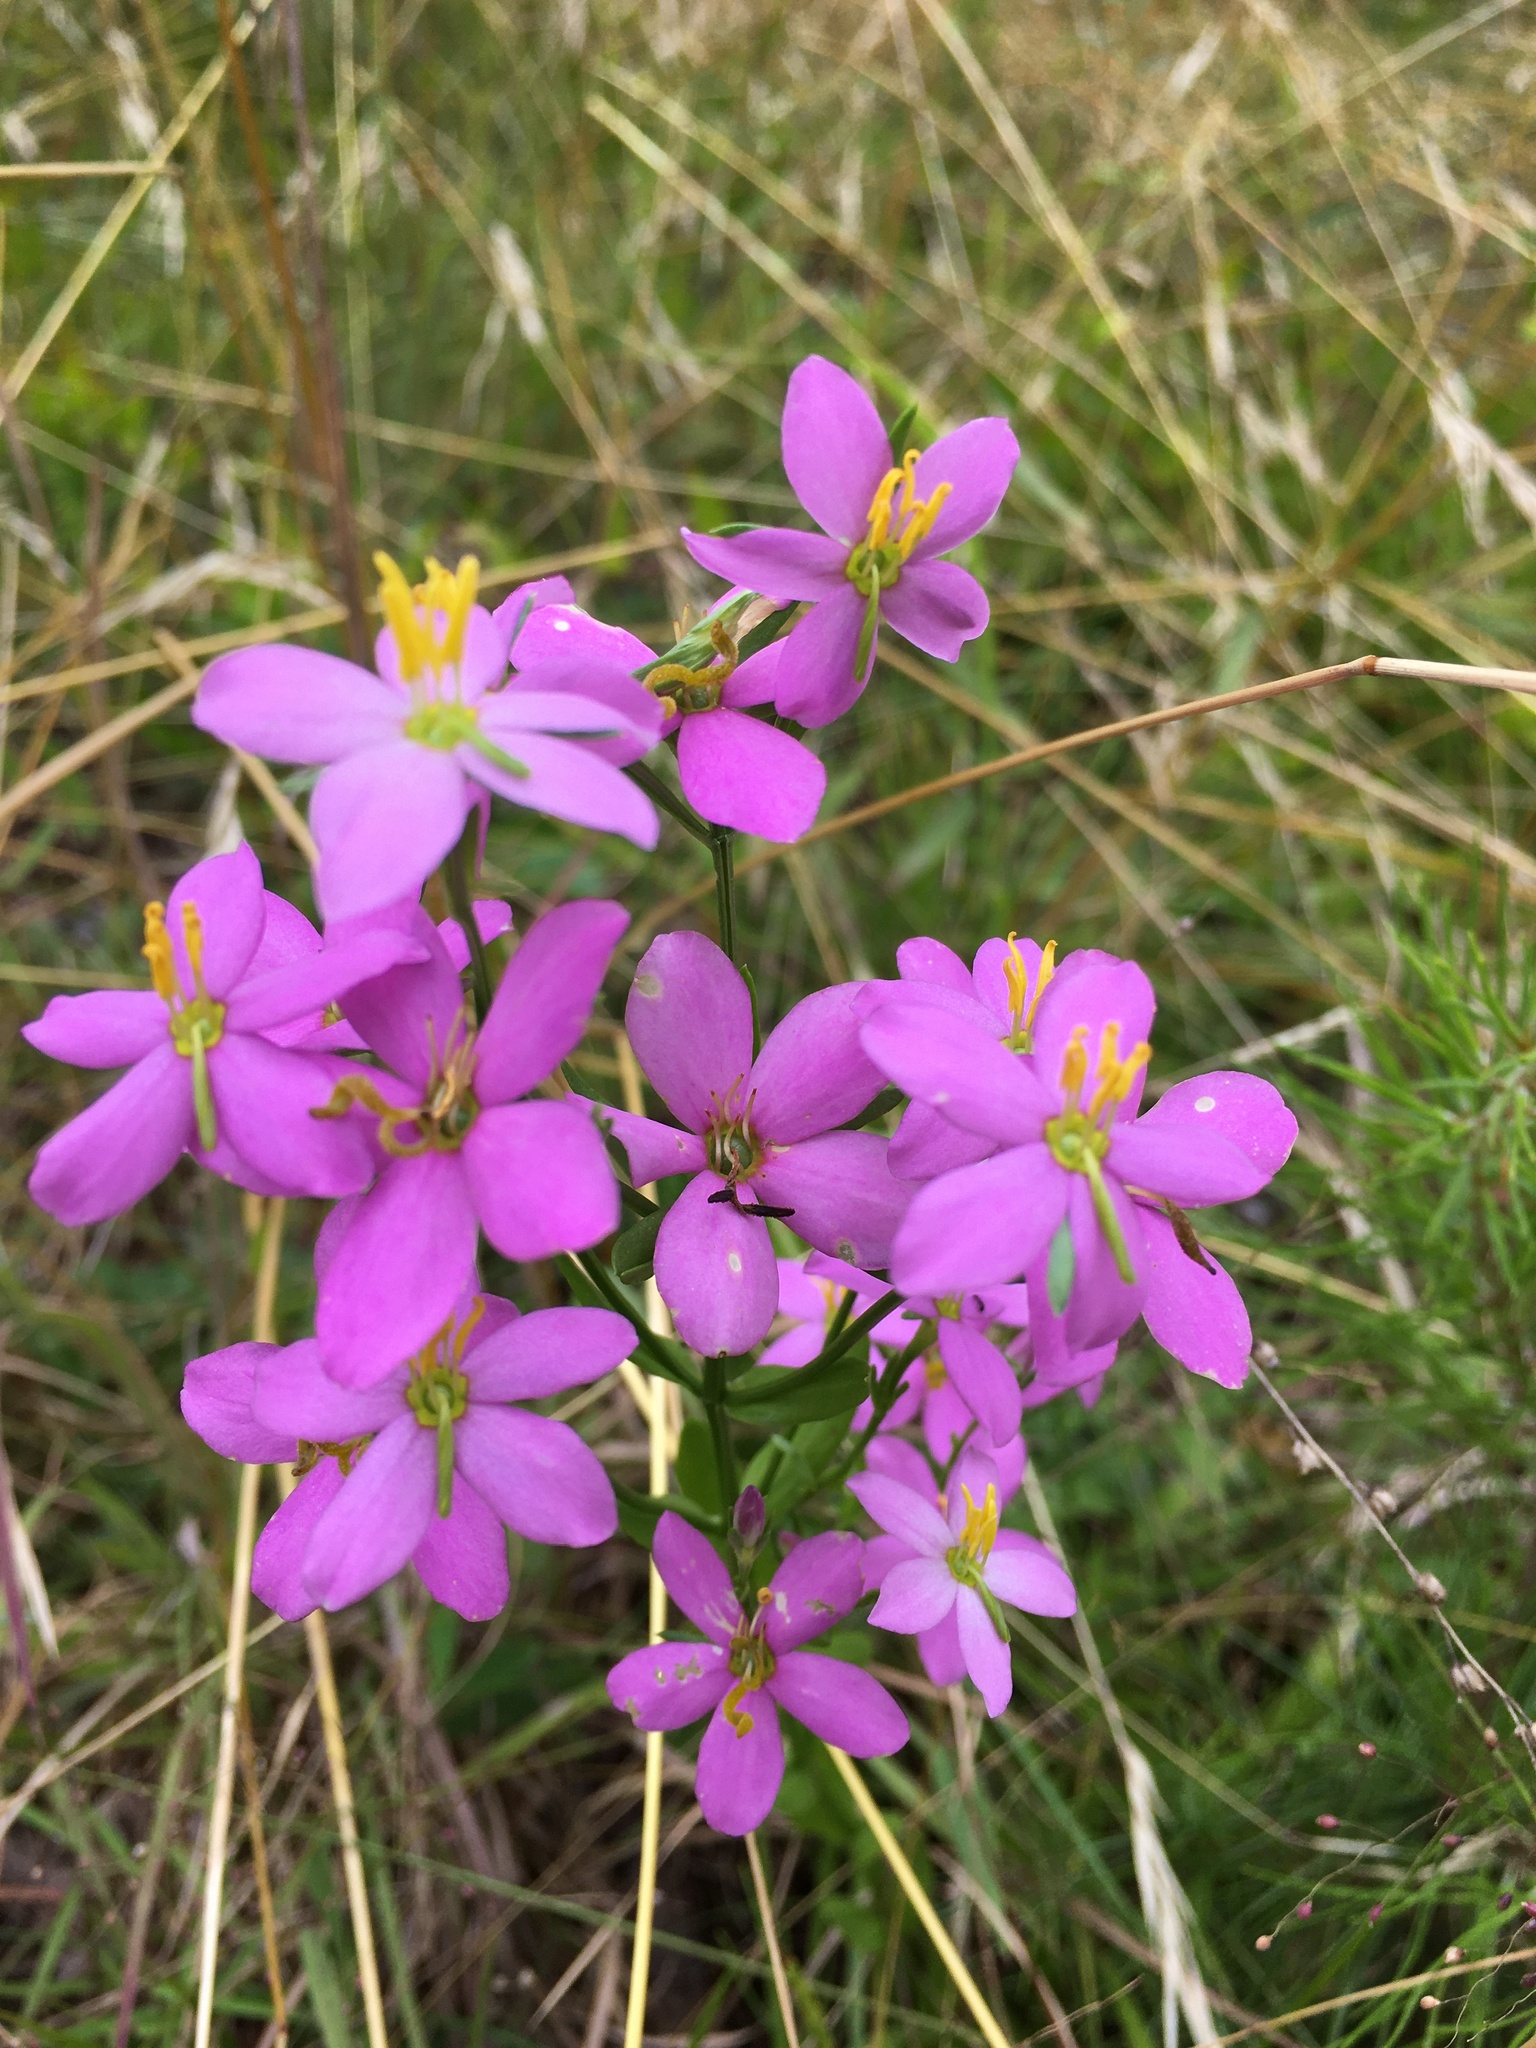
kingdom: Plantae
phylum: Tracheophyta
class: Magnoliopsida
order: Gentianales
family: Gentianaceae
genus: Sabatia
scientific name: Sabatia angularis
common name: Rose-pink
